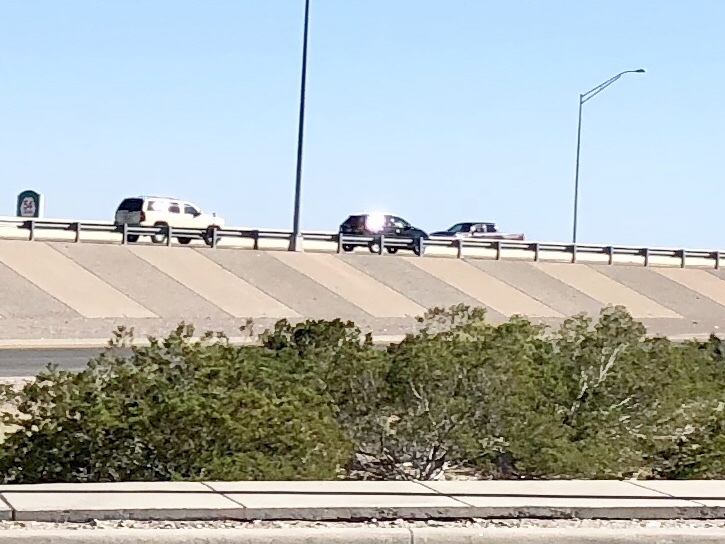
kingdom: Plantae
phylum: Tracheophyta
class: Magnoliopsida
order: Zygophyllales
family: Zygophyllaceae
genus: Larrea
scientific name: Larrea tridentata
